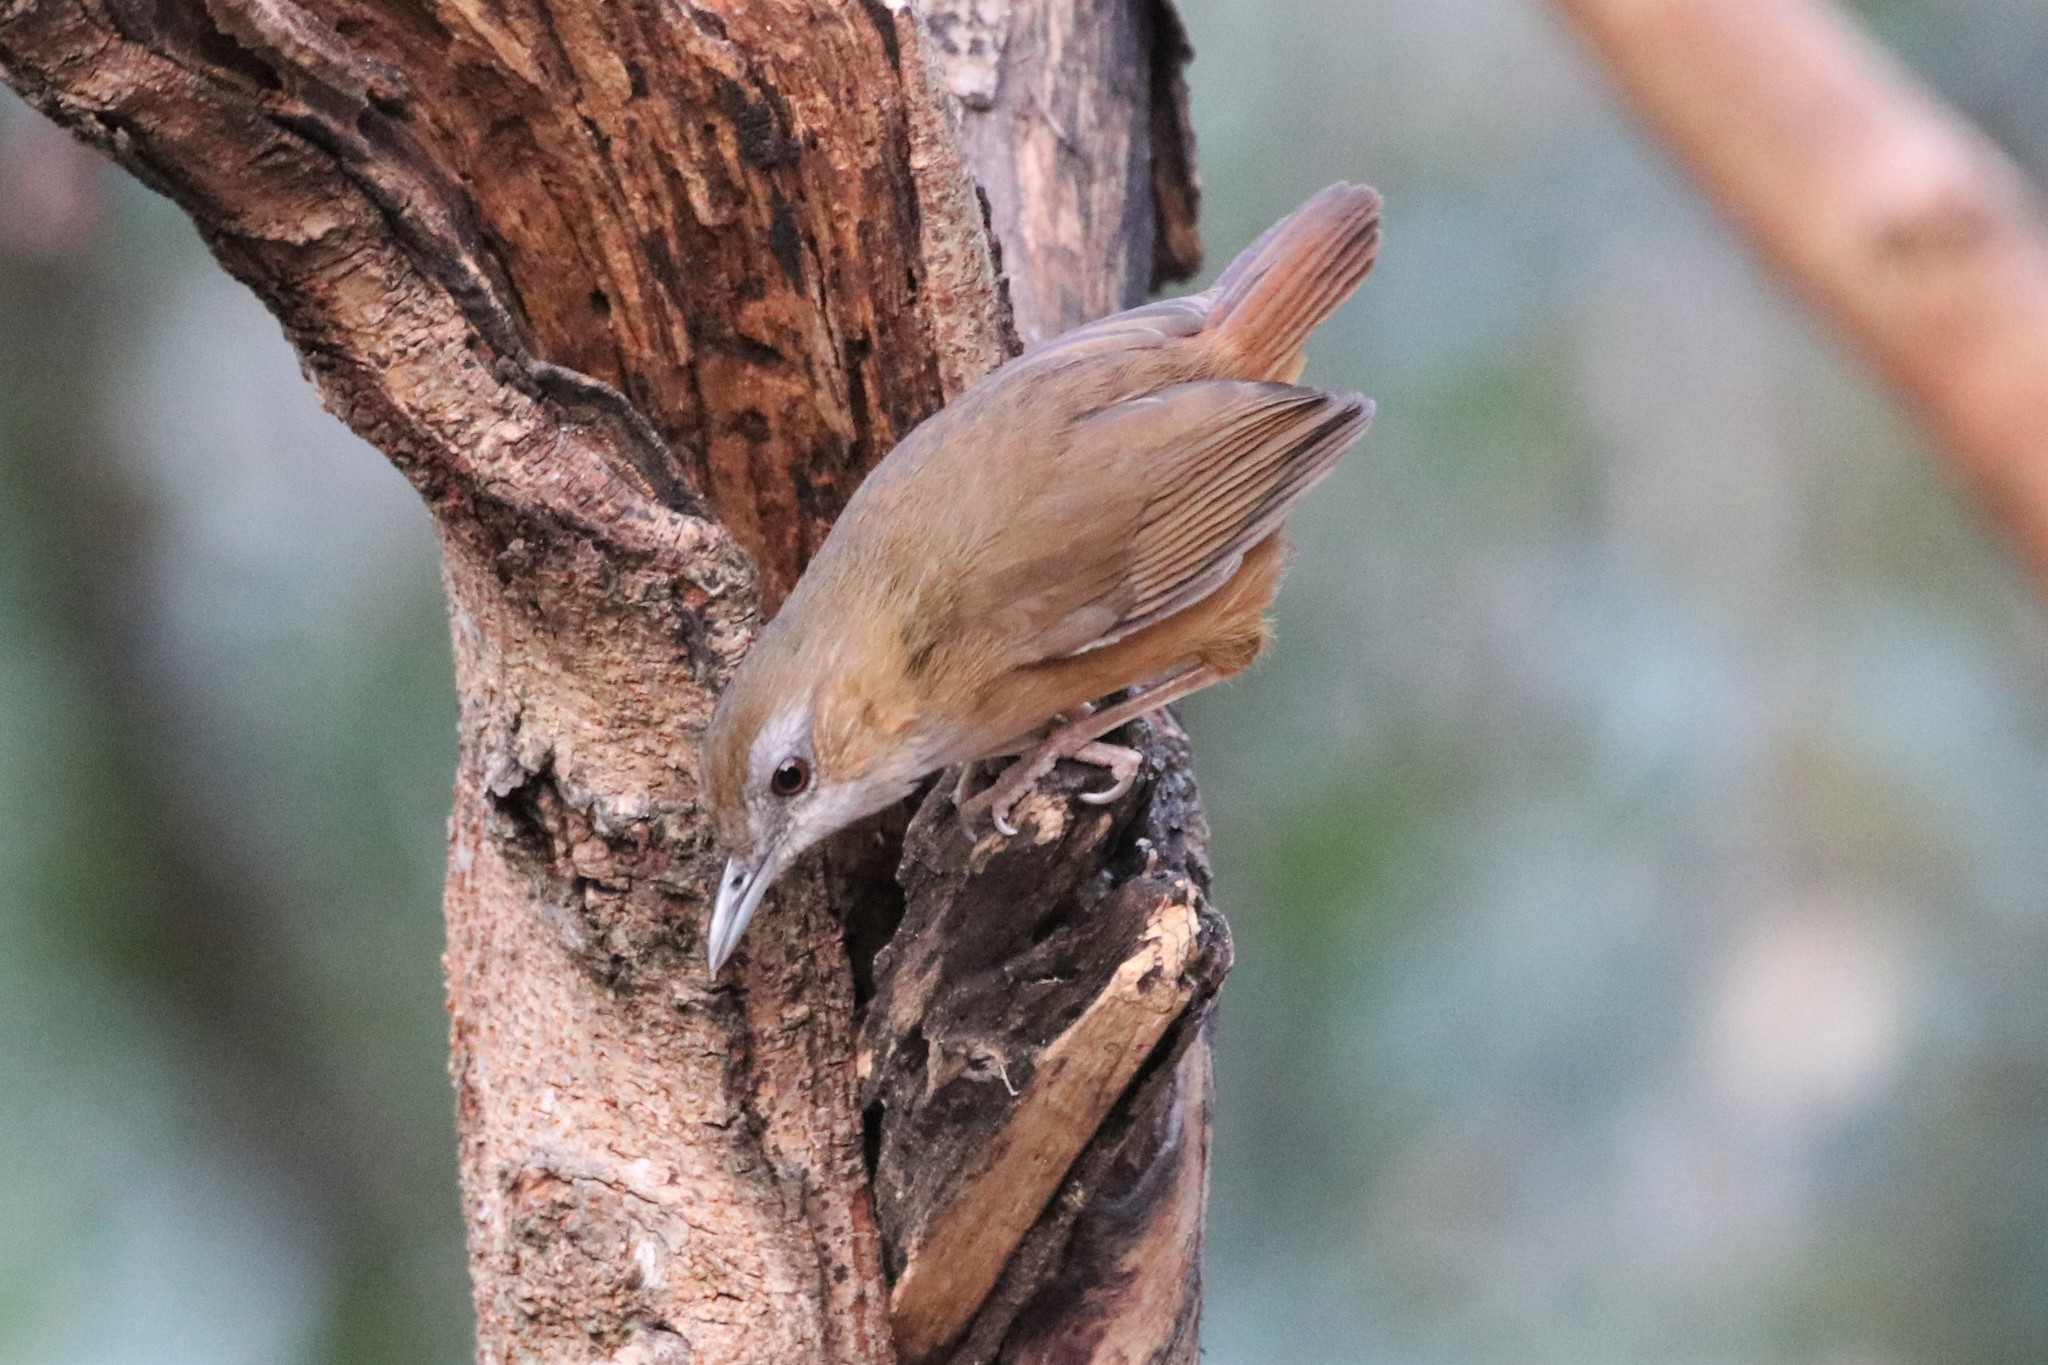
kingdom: Animalia
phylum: Chordata
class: Aves
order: Passeriformes
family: Pellorneidae
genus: Malacocincla
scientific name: Malacocincla abbotti
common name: Abbott's babbler
